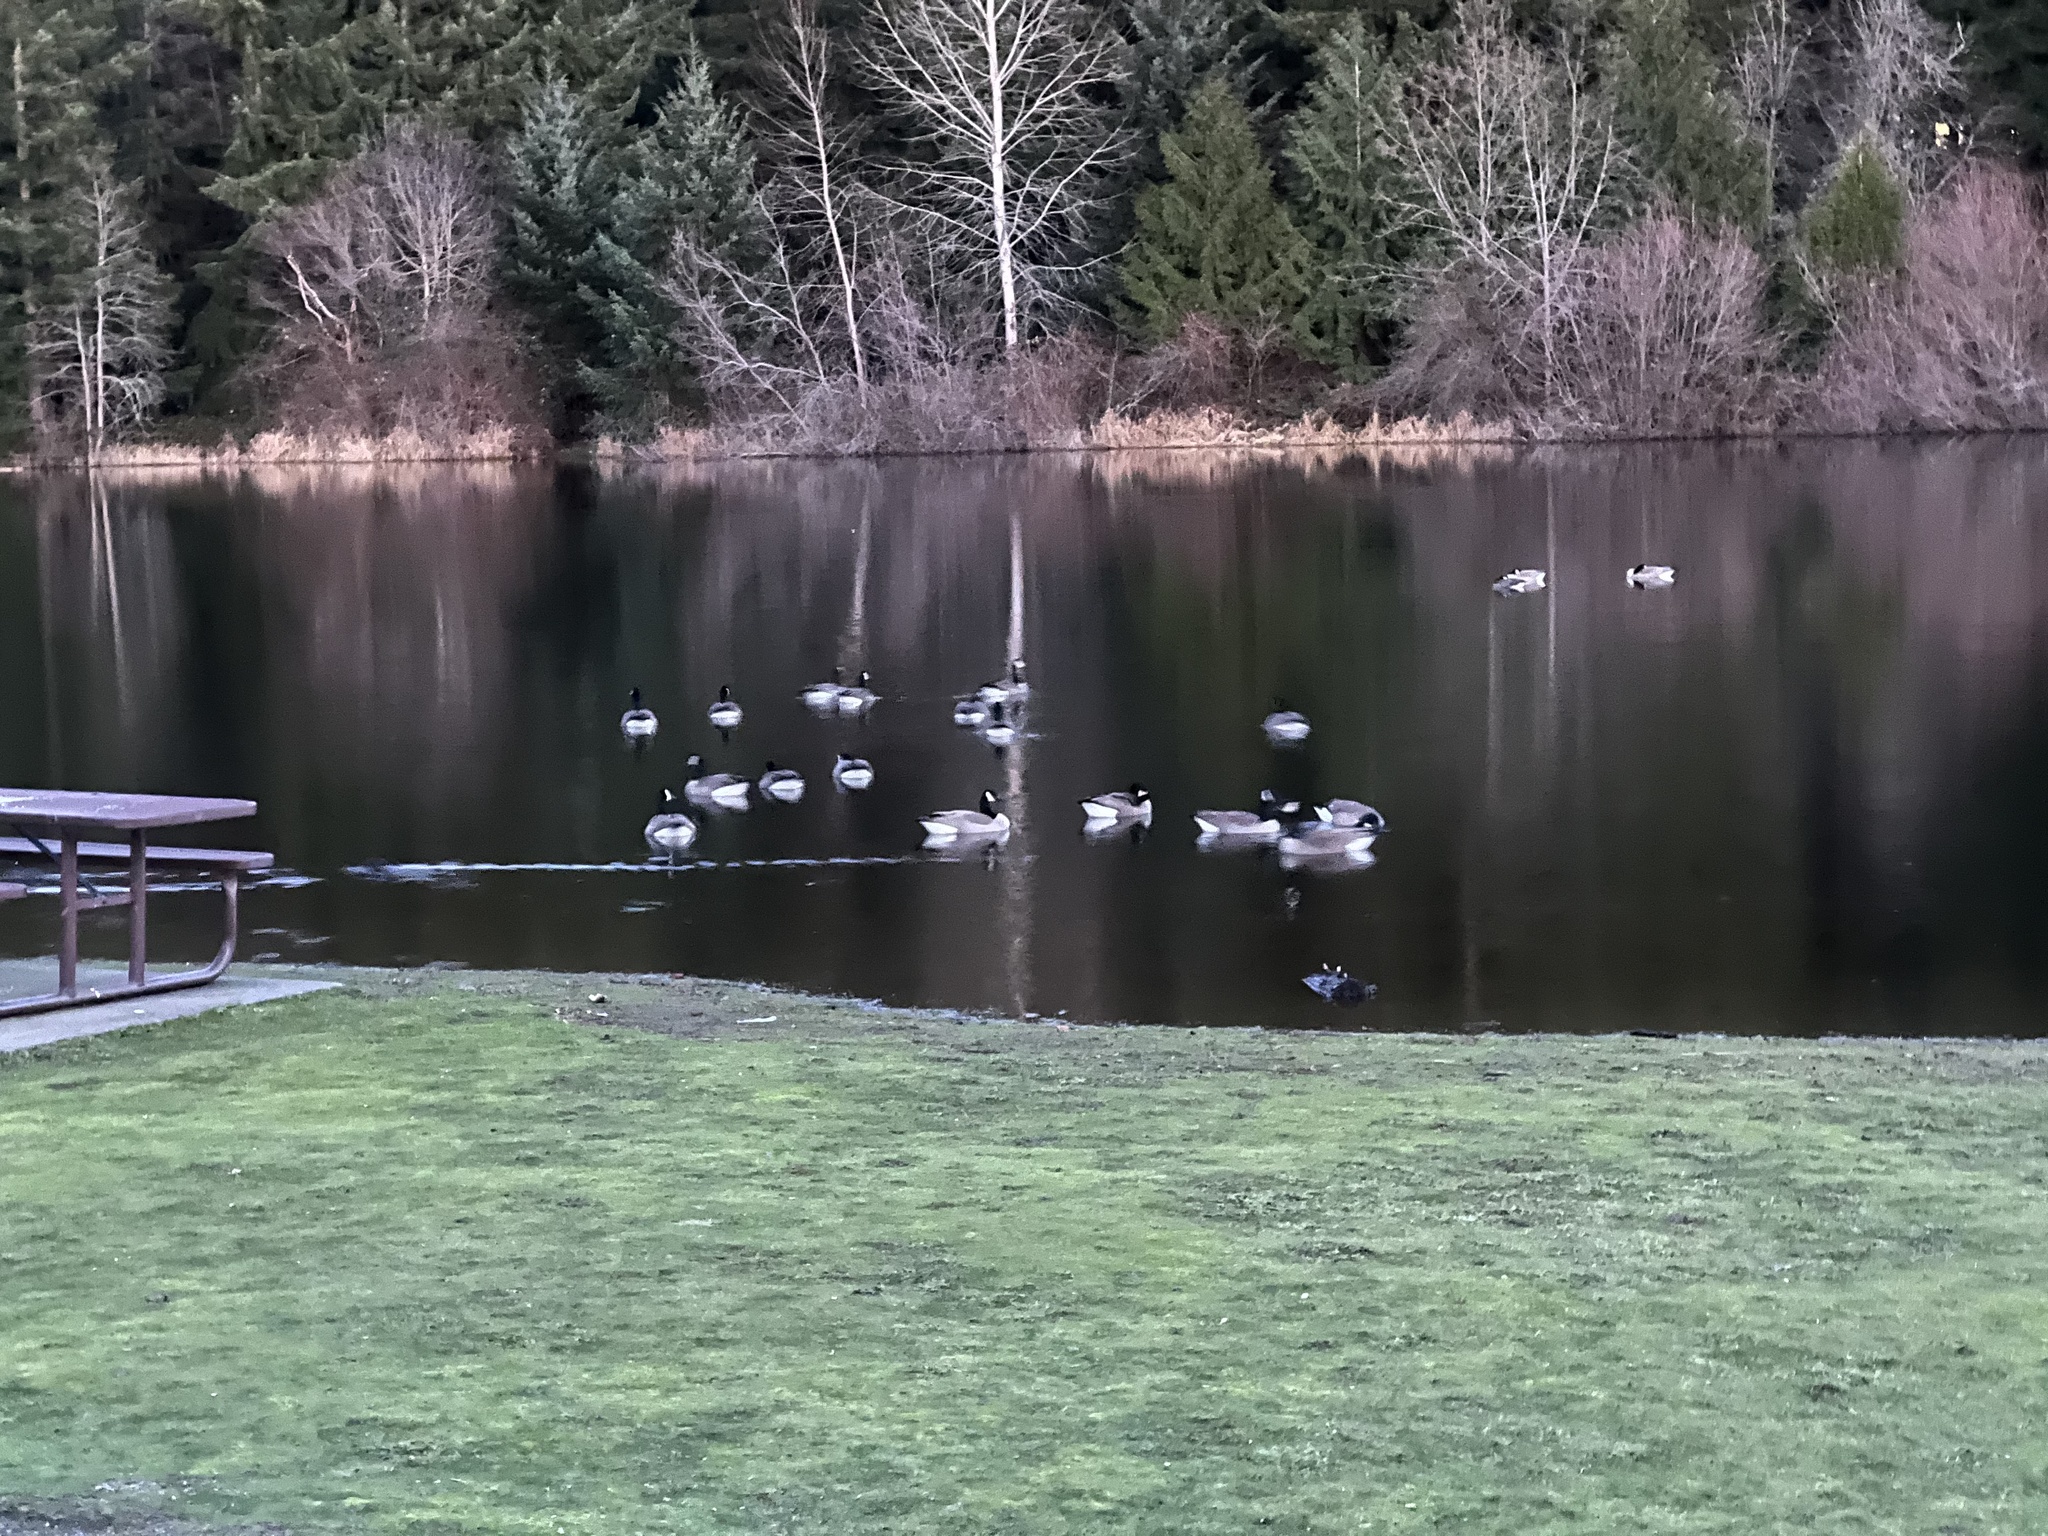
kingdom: Animalia
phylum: Chordata
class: Aves
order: Anseriformes
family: Anatidae
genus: Branta
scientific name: Branta canadensis
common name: Canada goose
